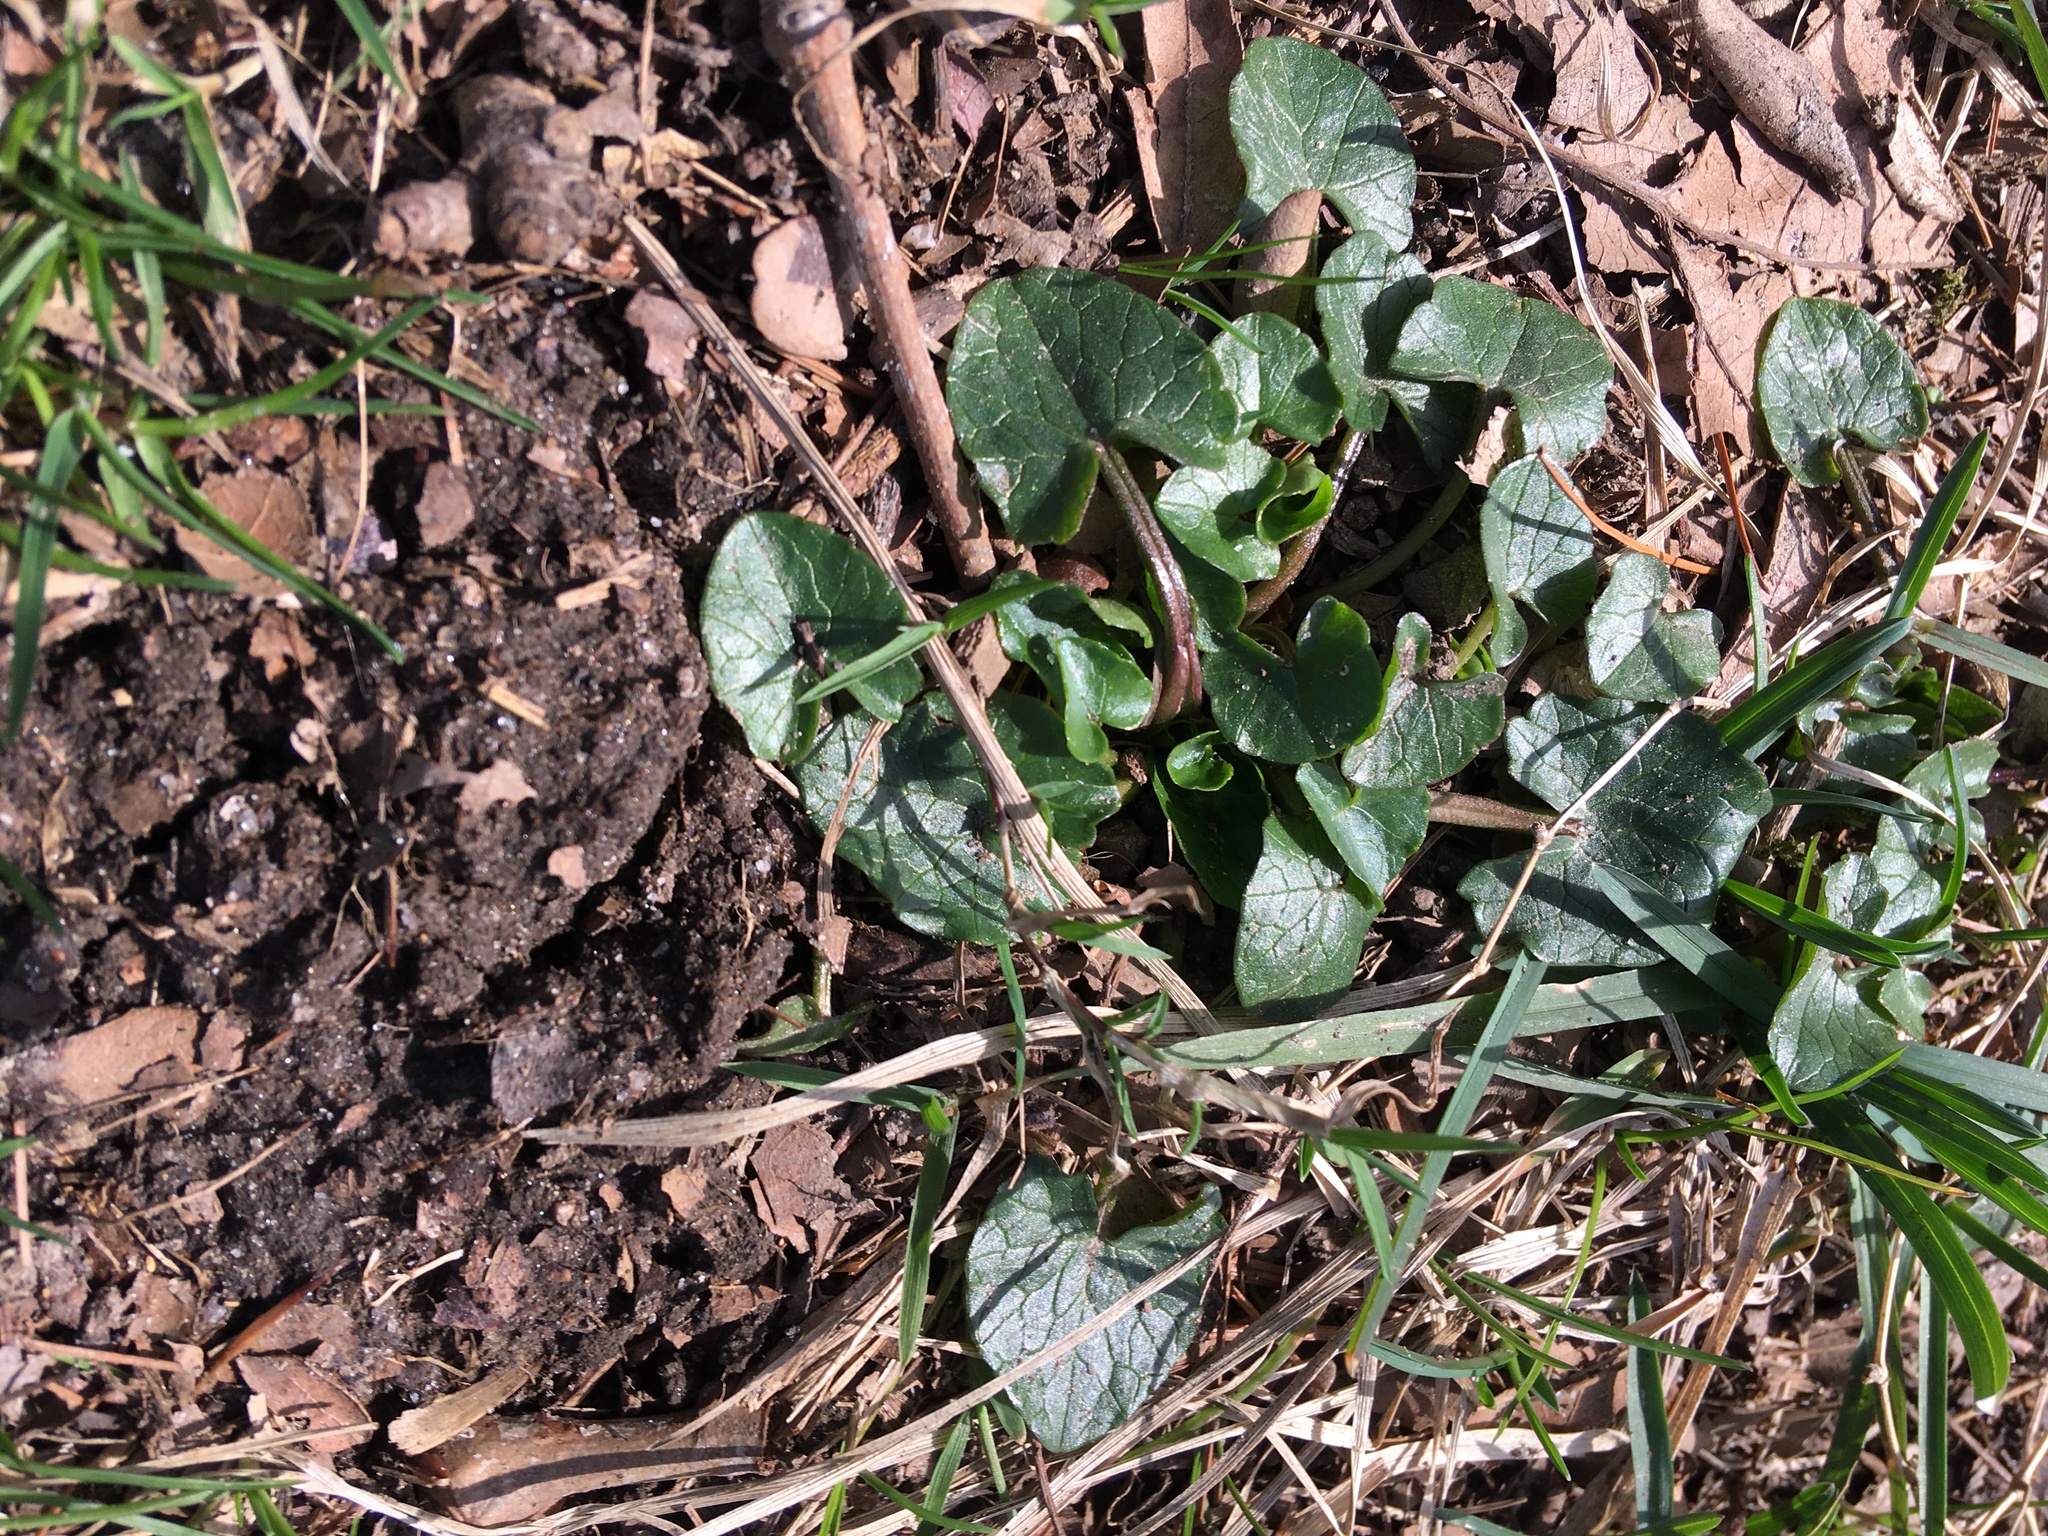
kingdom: Plantae
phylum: Tracheophyta
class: Magnoliopsida
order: Ranunculales
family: Ranunculaceae
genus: Ficaria
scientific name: Ficaria verna
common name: Lesser celandine
